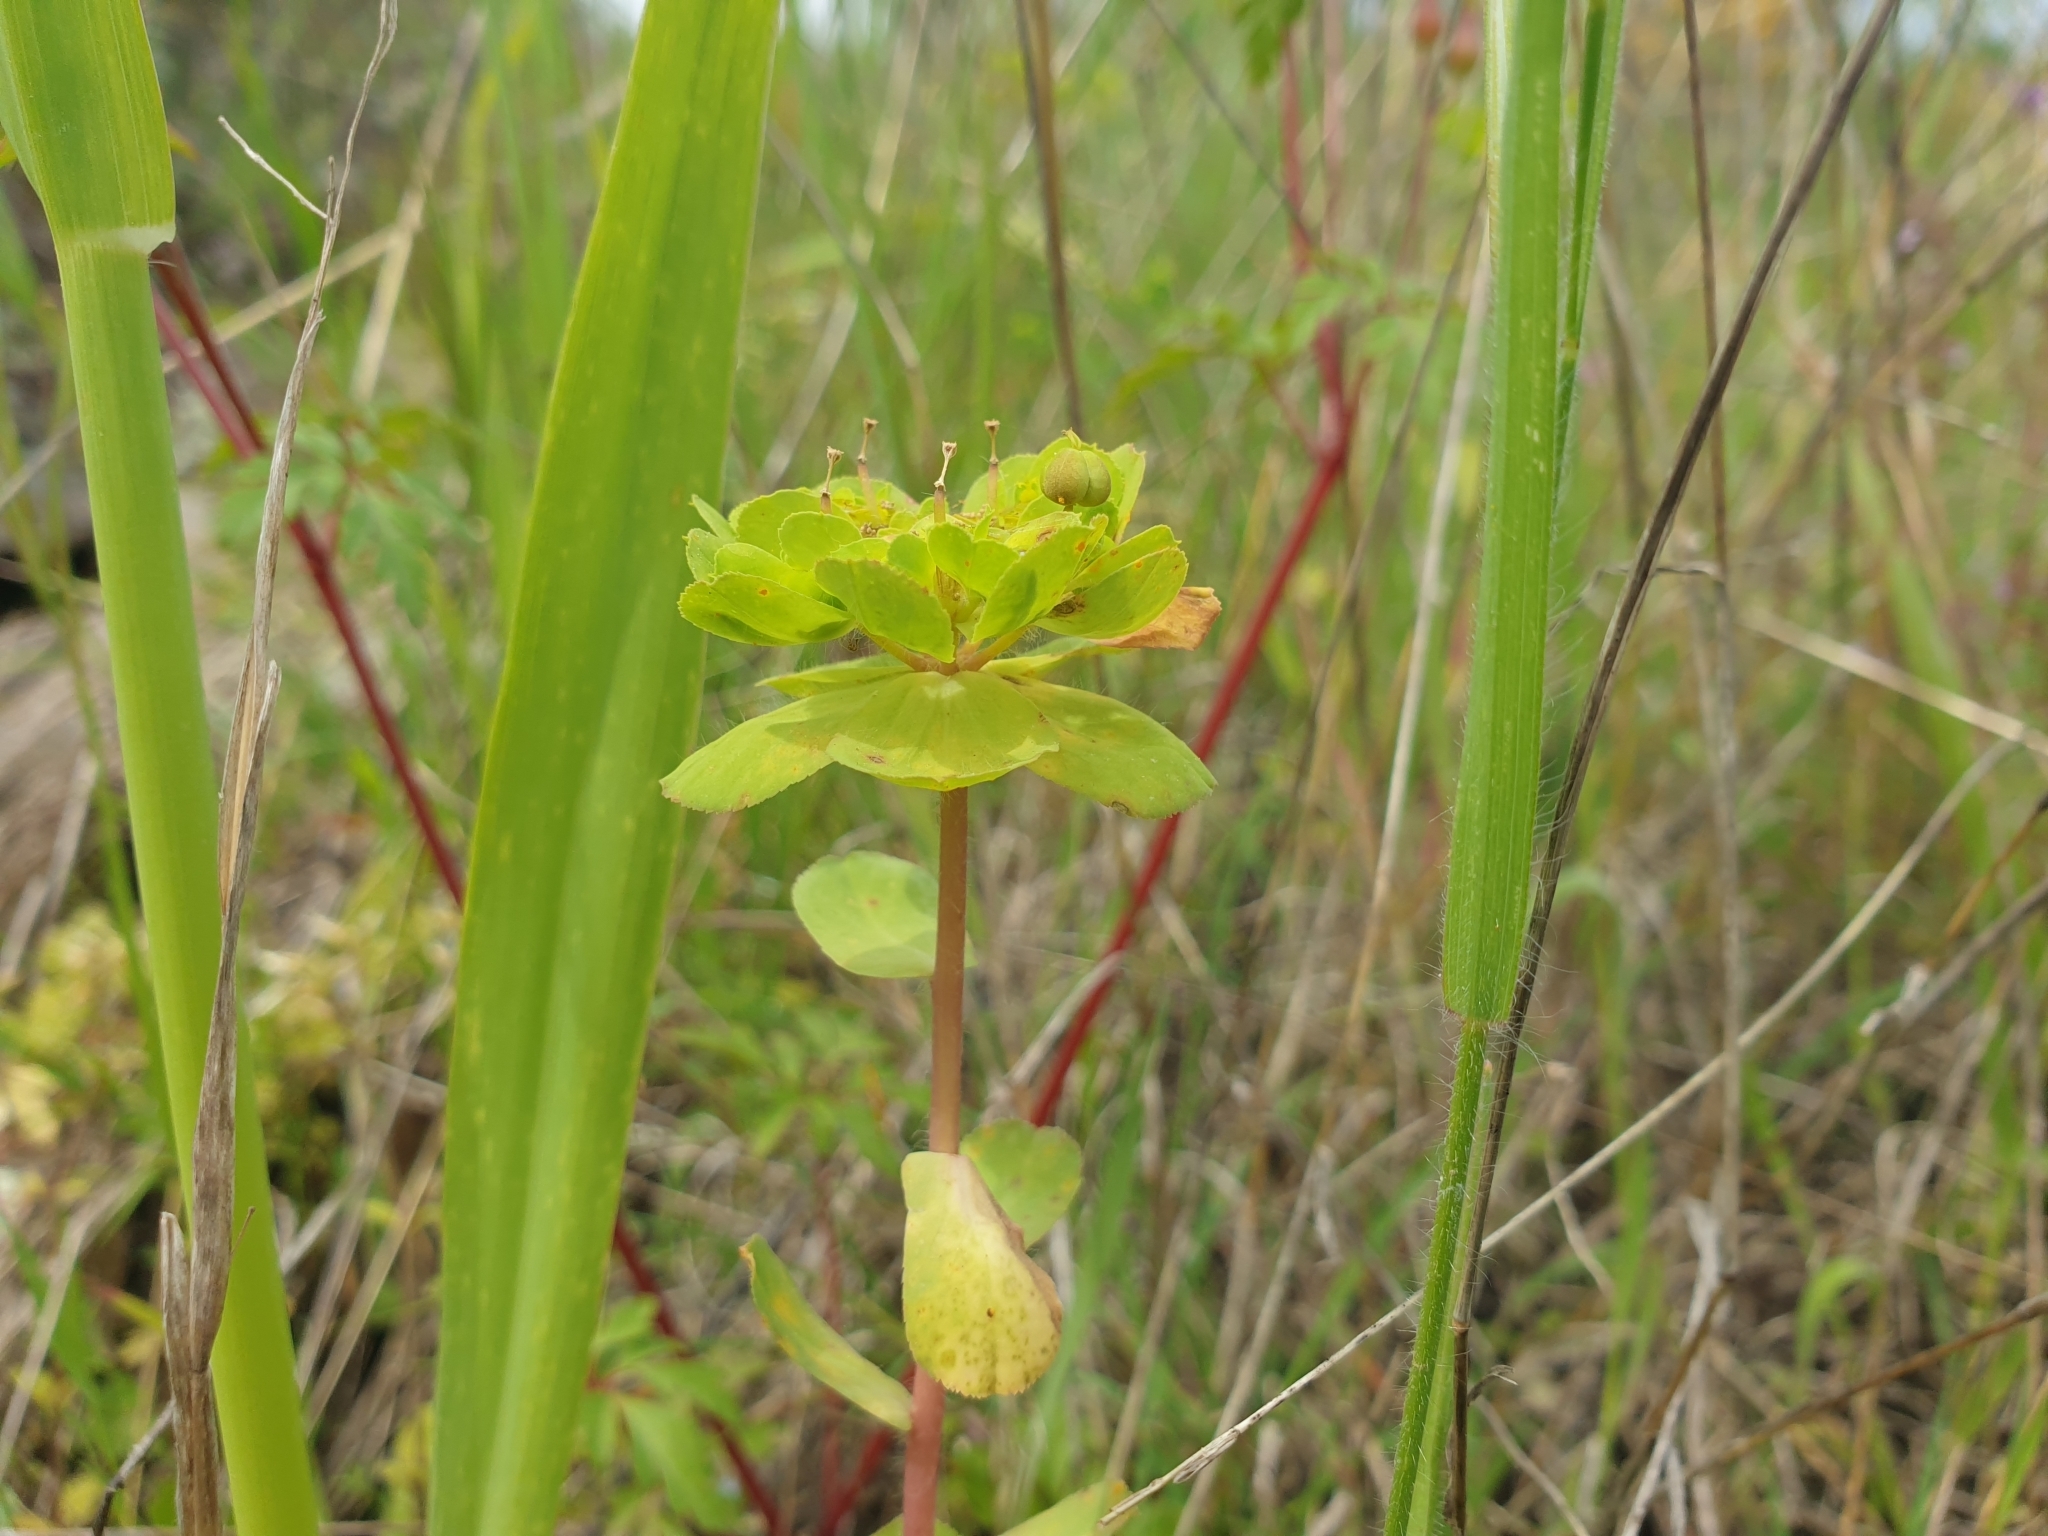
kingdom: Plantae
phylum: Tracheophyta
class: Magnoliopsida
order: Malpighiales
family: Euphorbiaceae
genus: Euphorbia
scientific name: Euphorbia helioscopia
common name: Sun spurge
